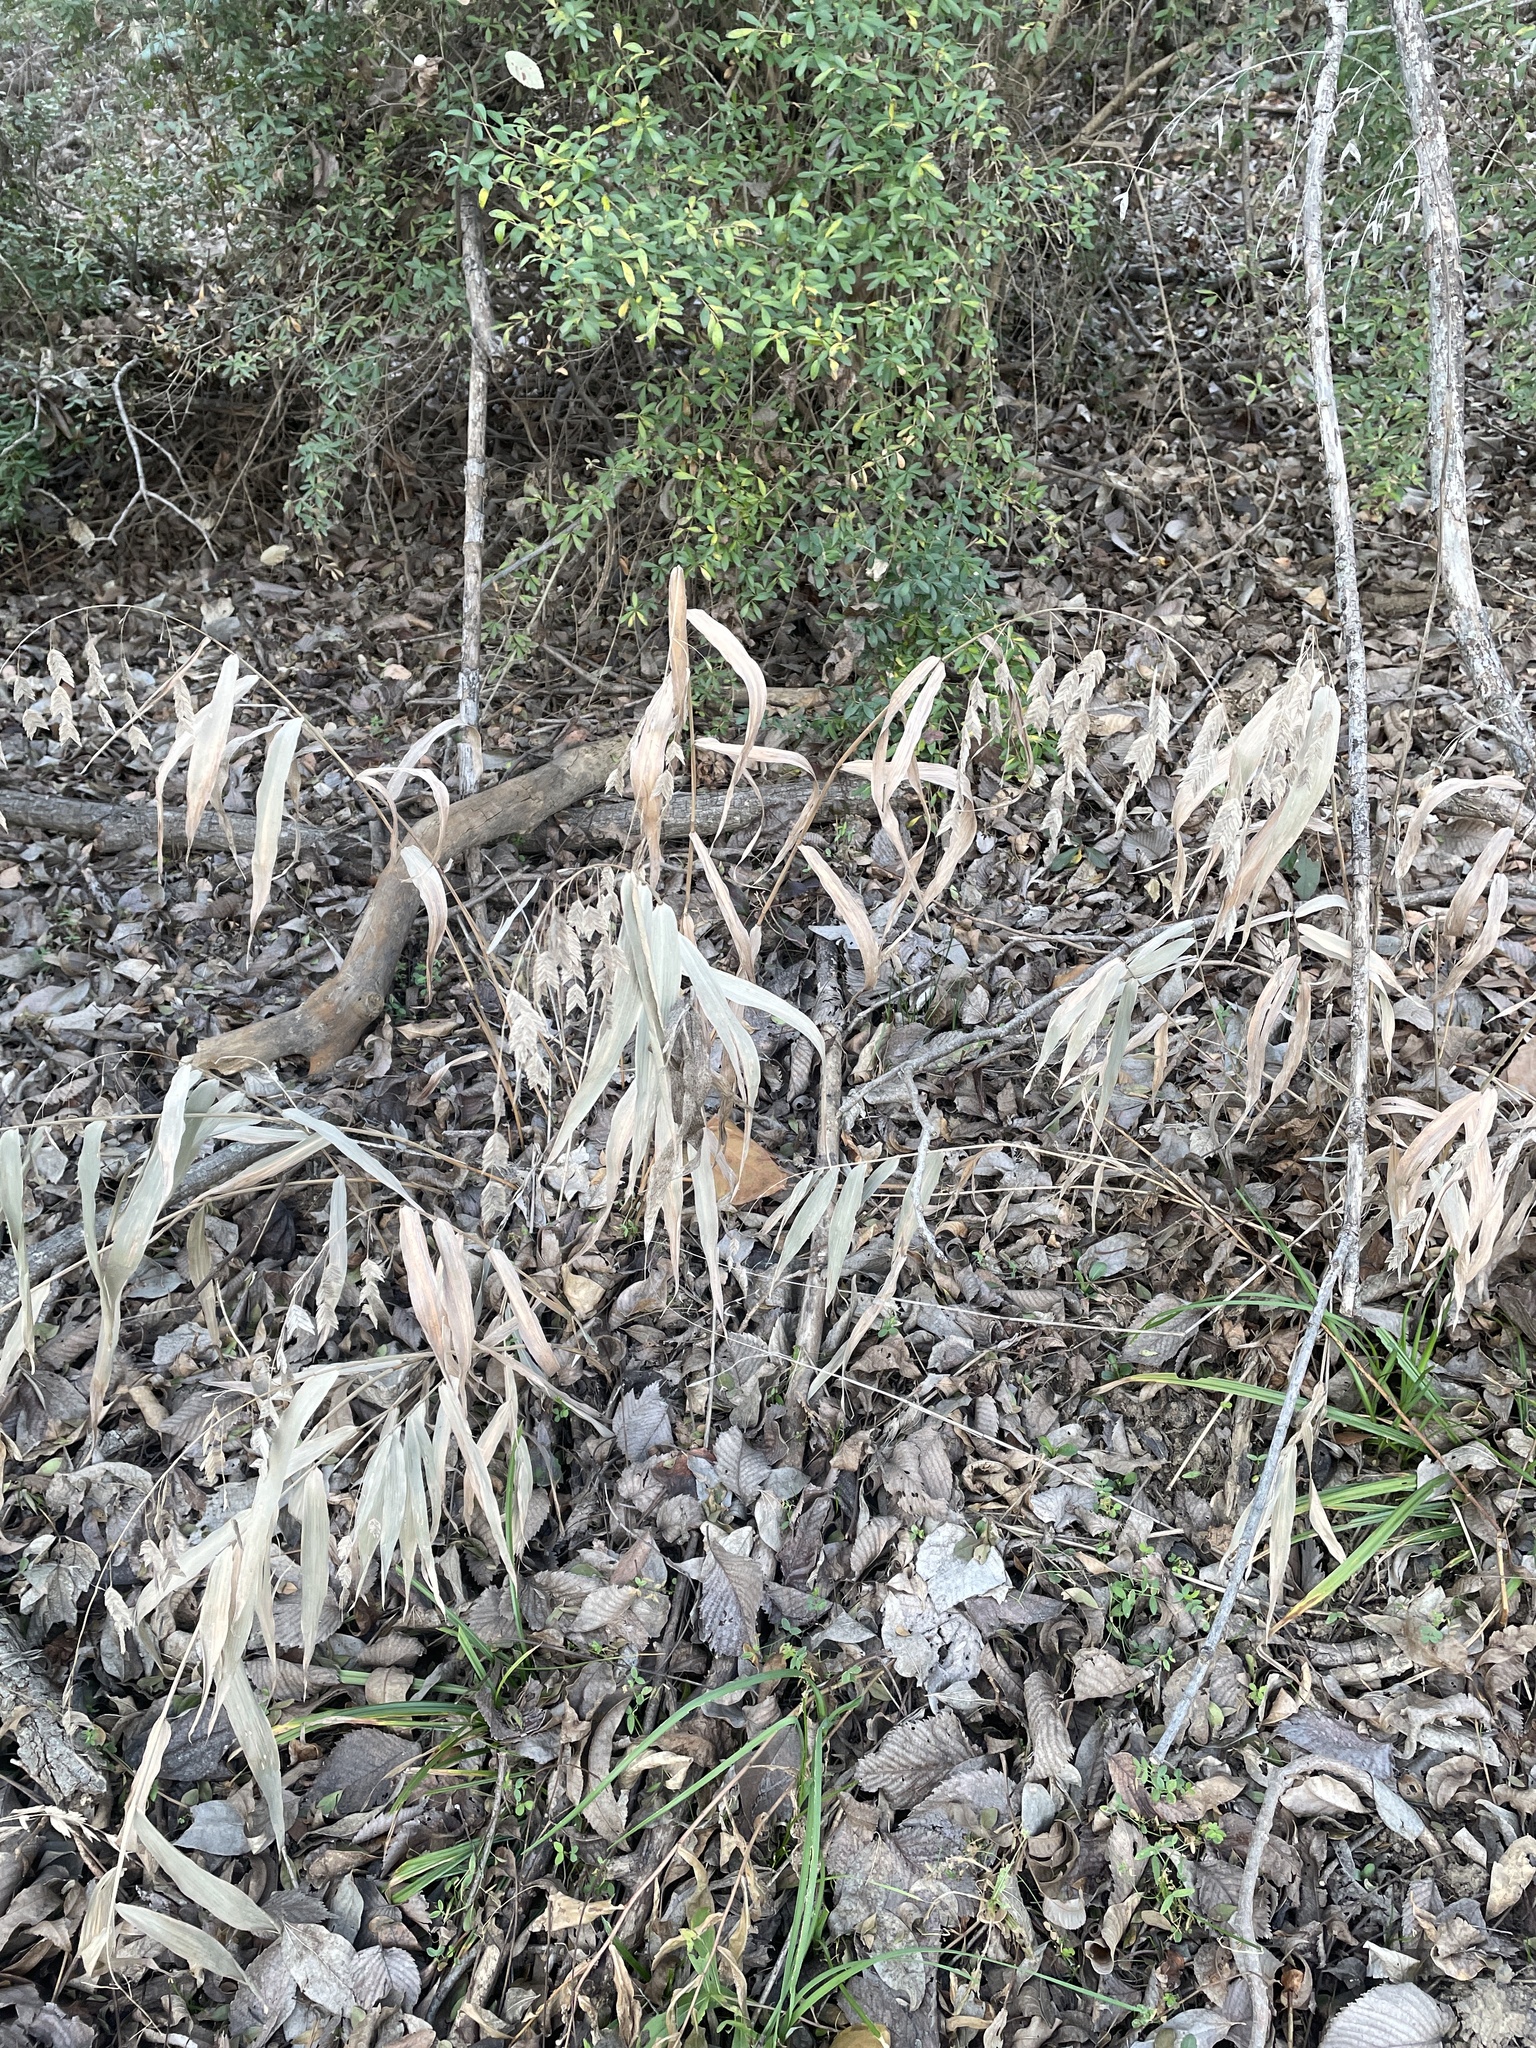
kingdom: Plantae
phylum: Tracheophyta
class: Liliopsida
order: Poales
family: Poaceae
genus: Chasmanthium
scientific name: Chasmanthium latifolium
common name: Broad-leaved chasmanthium
